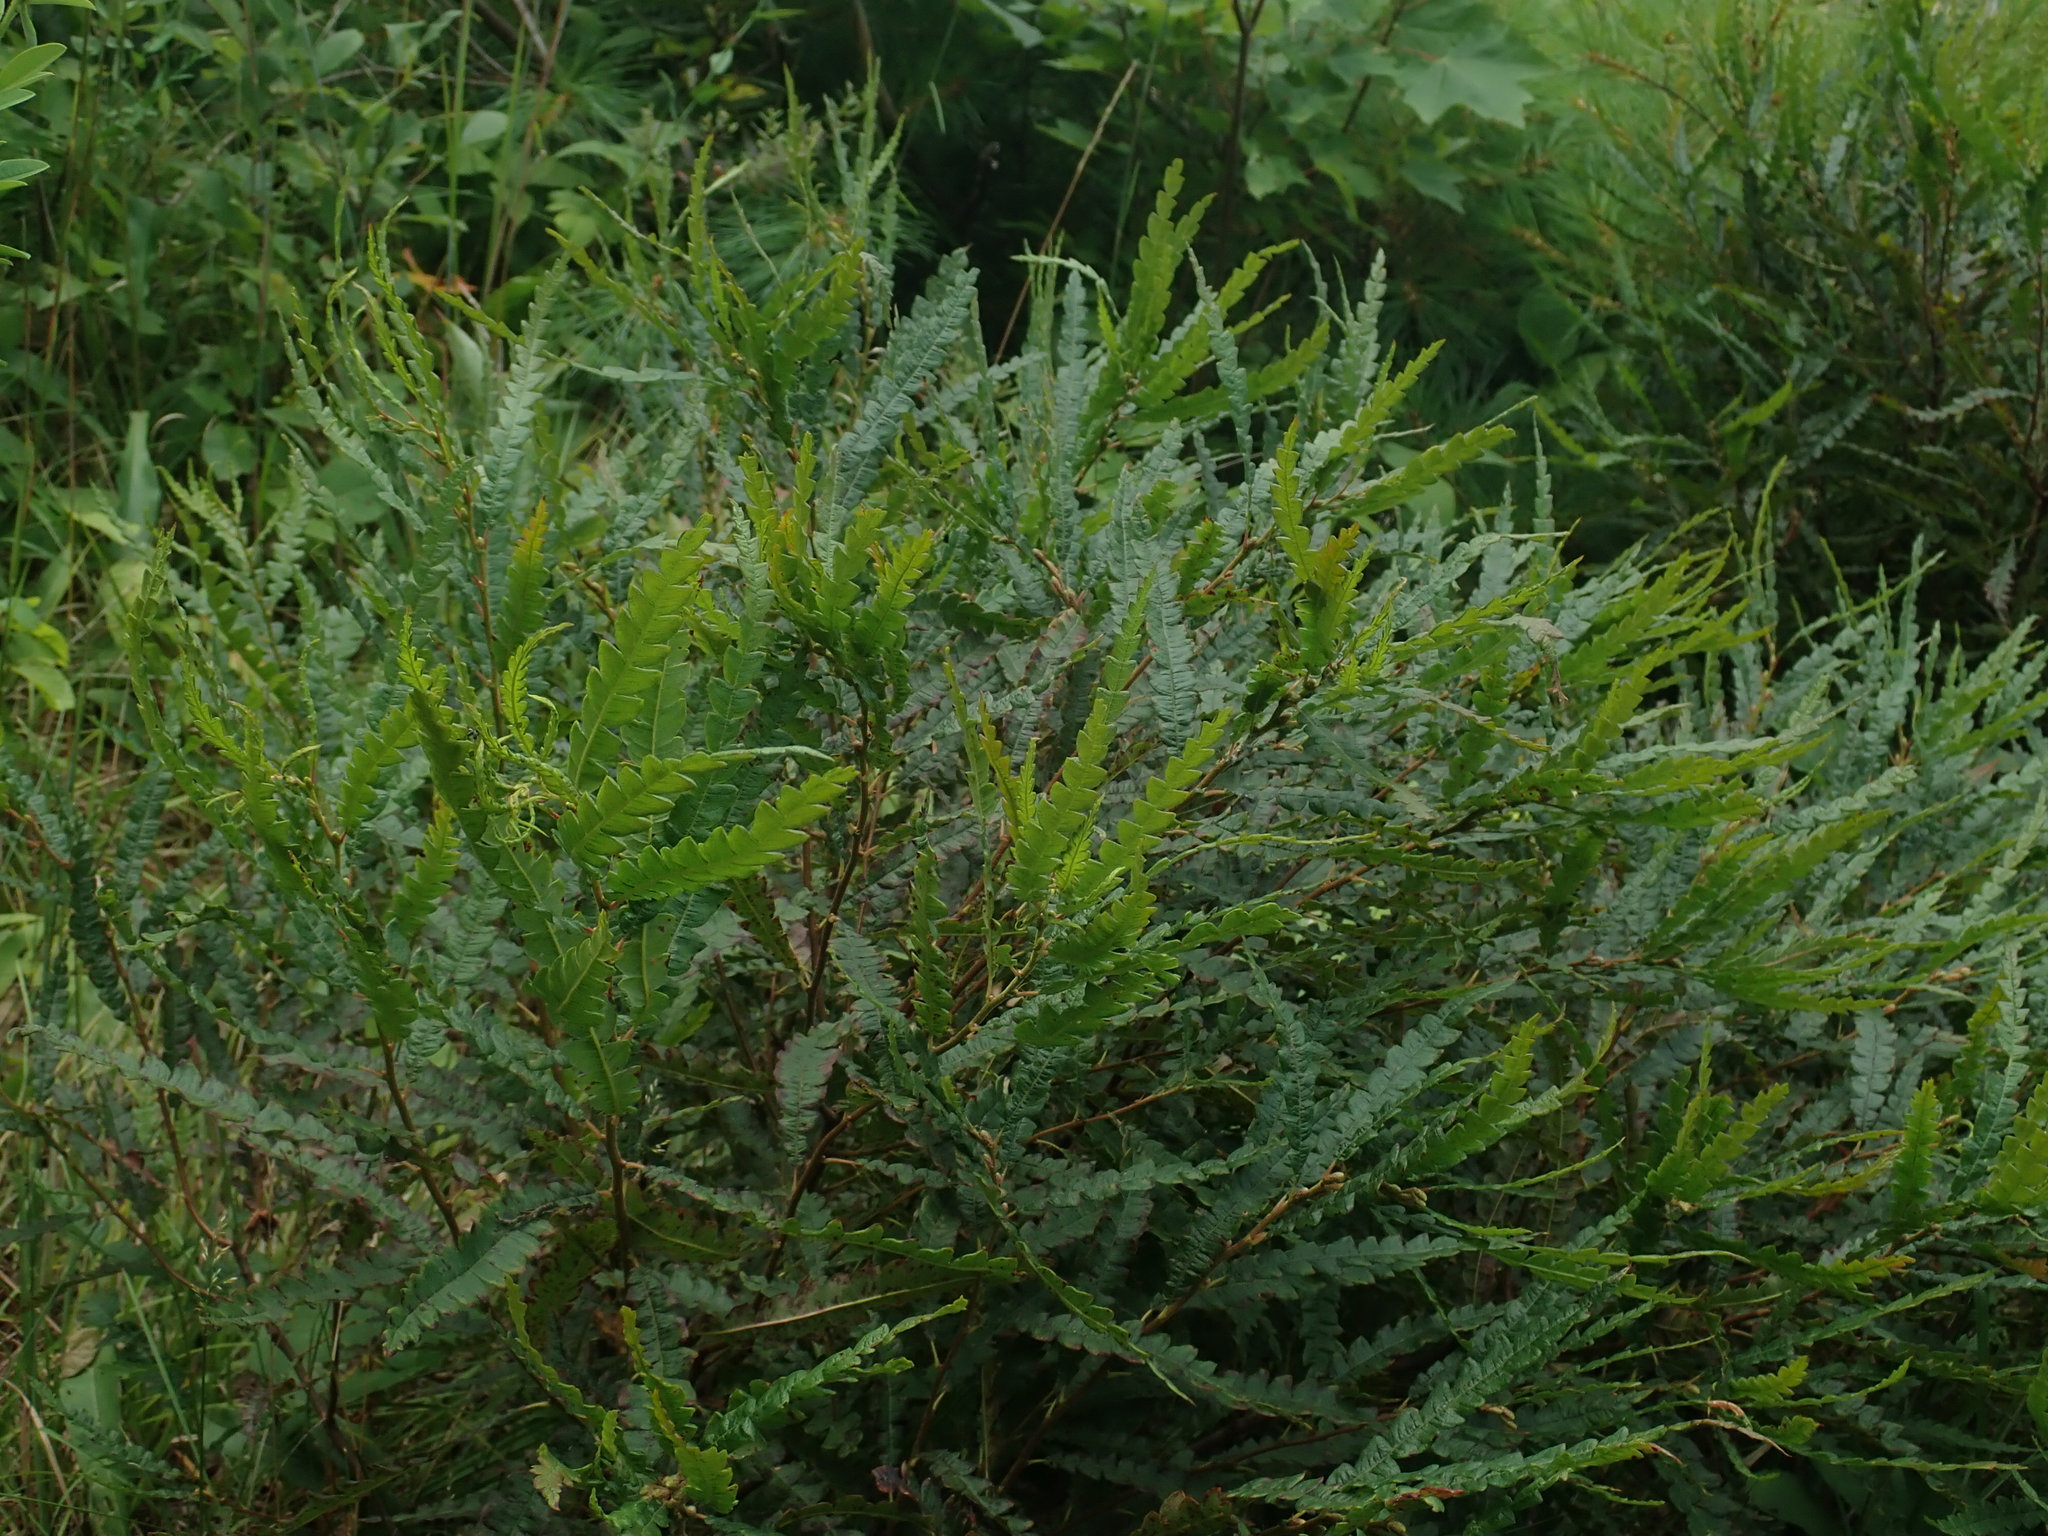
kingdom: Plantae
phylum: Tracheophyta
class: Magnoliopsida
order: Fagales
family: Myricaceae
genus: Comptonia
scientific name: Comptonia peregrina
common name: Sweet-fern
